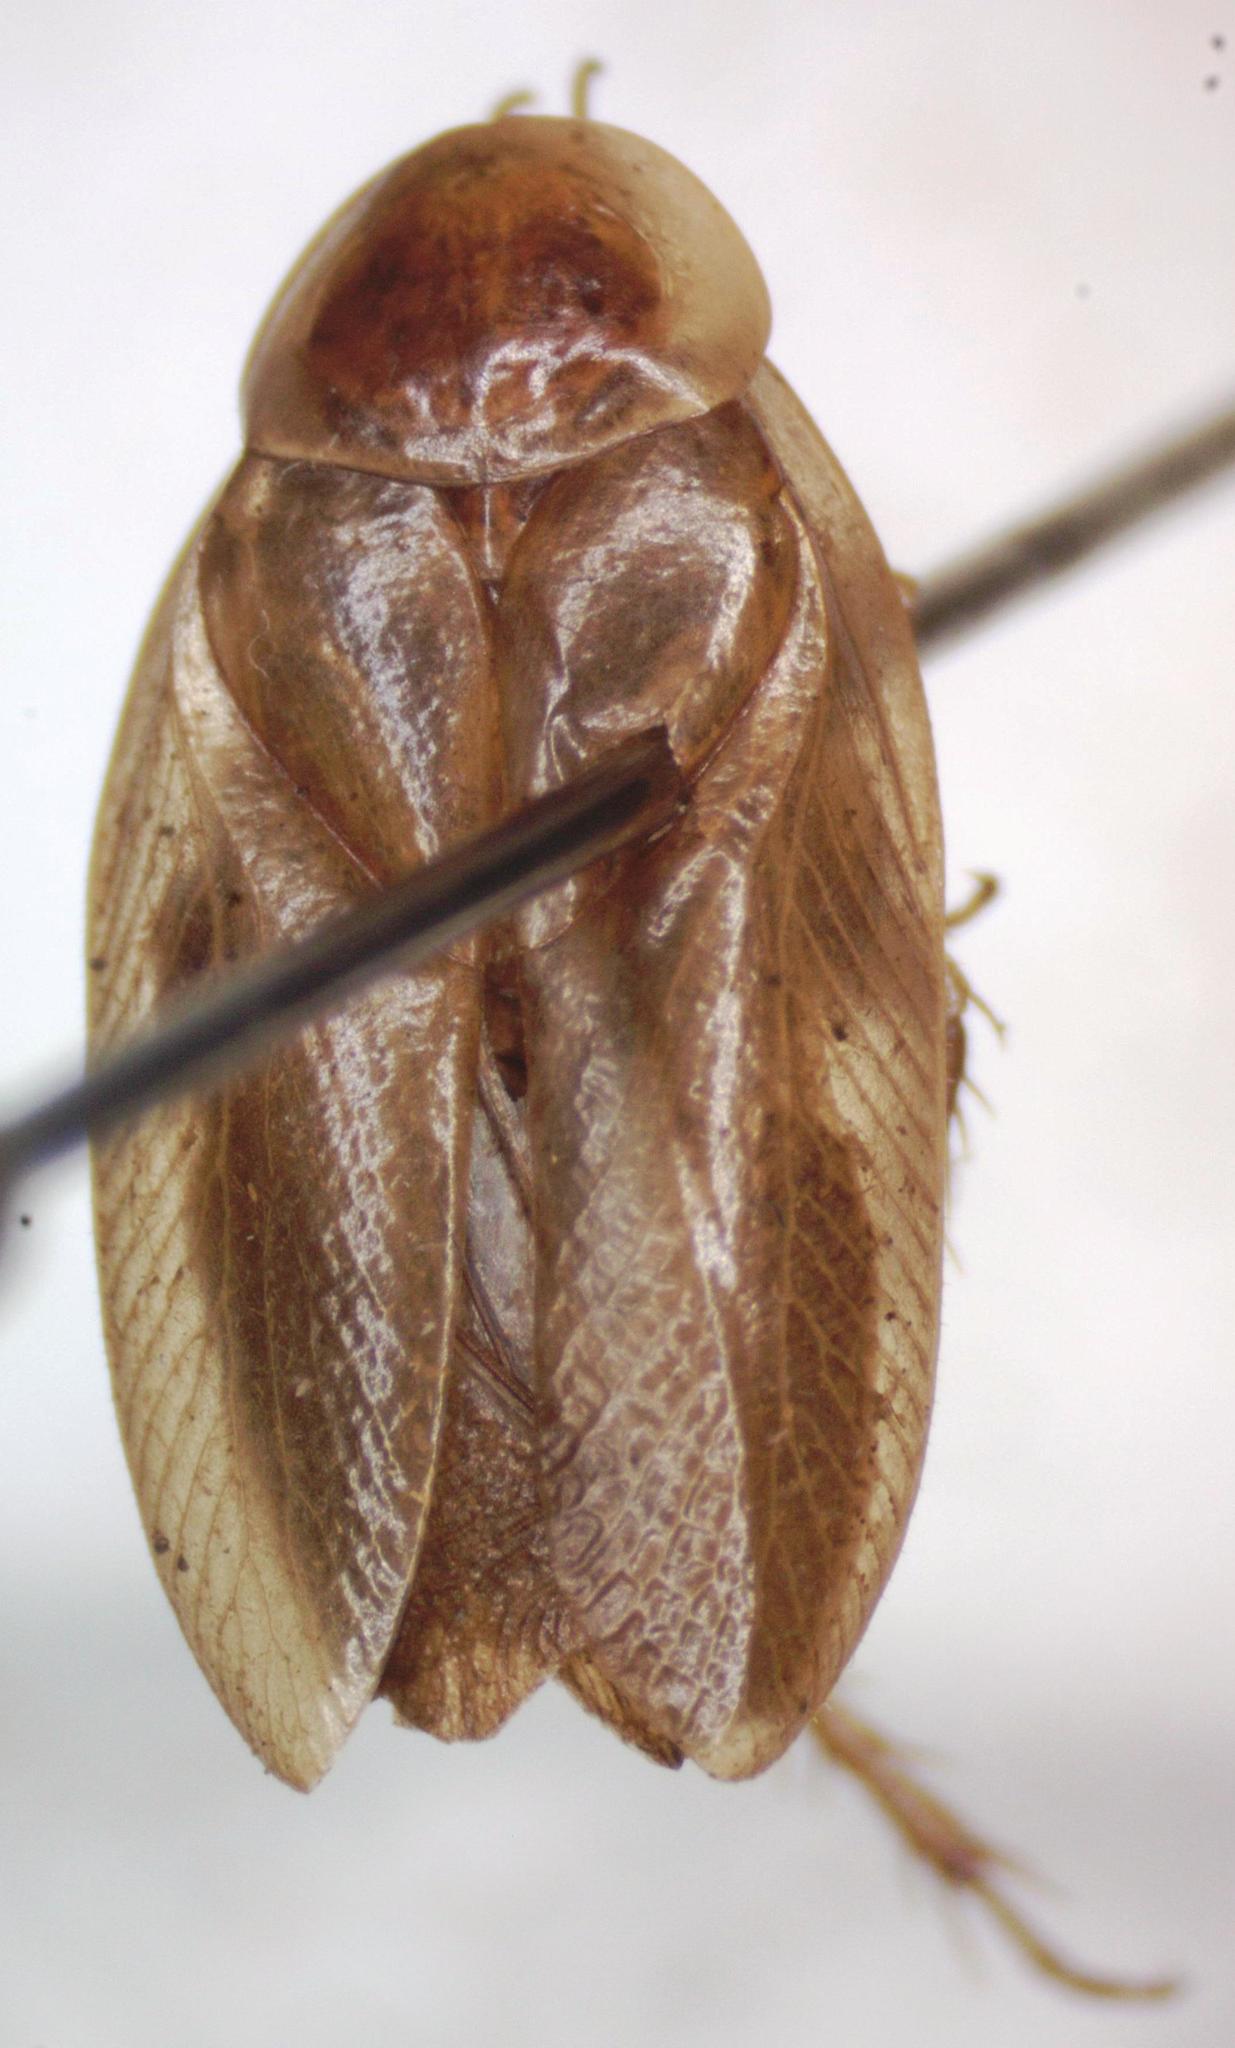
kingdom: Animalia
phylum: Arthropoda
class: Insecta
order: Blattodea
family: Ectobiidae
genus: Riatia
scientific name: Riatia fulgida
